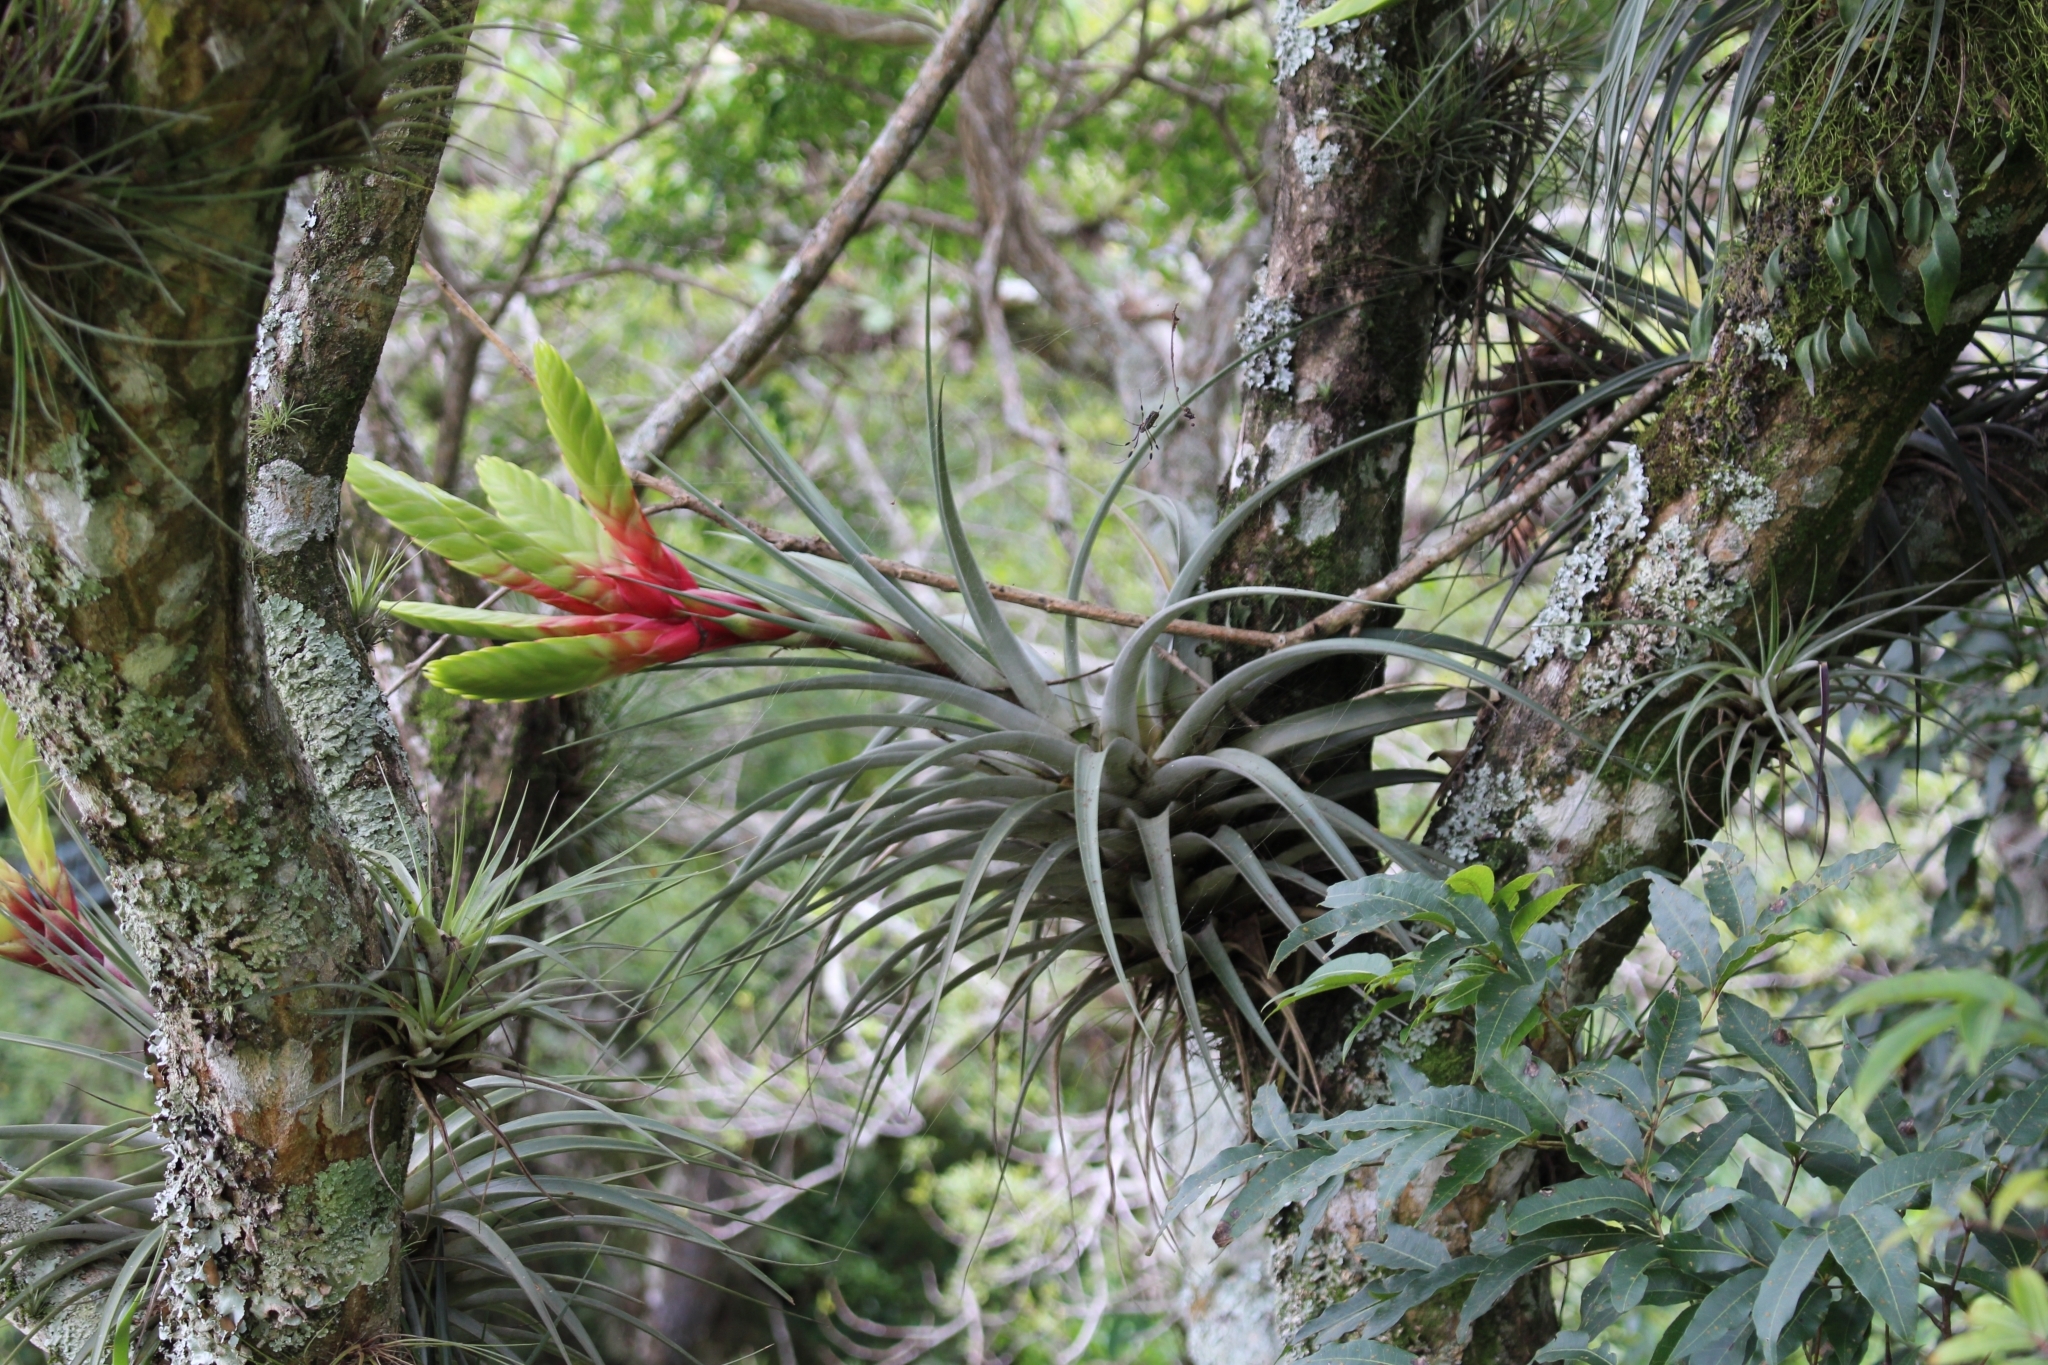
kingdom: Plantae
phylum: Tracheophyta
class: Liliopsida
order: Poales
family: Bromeliaceae
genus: Tillandsia
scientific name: Tillandsia fasciculata
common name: Giant airplant
